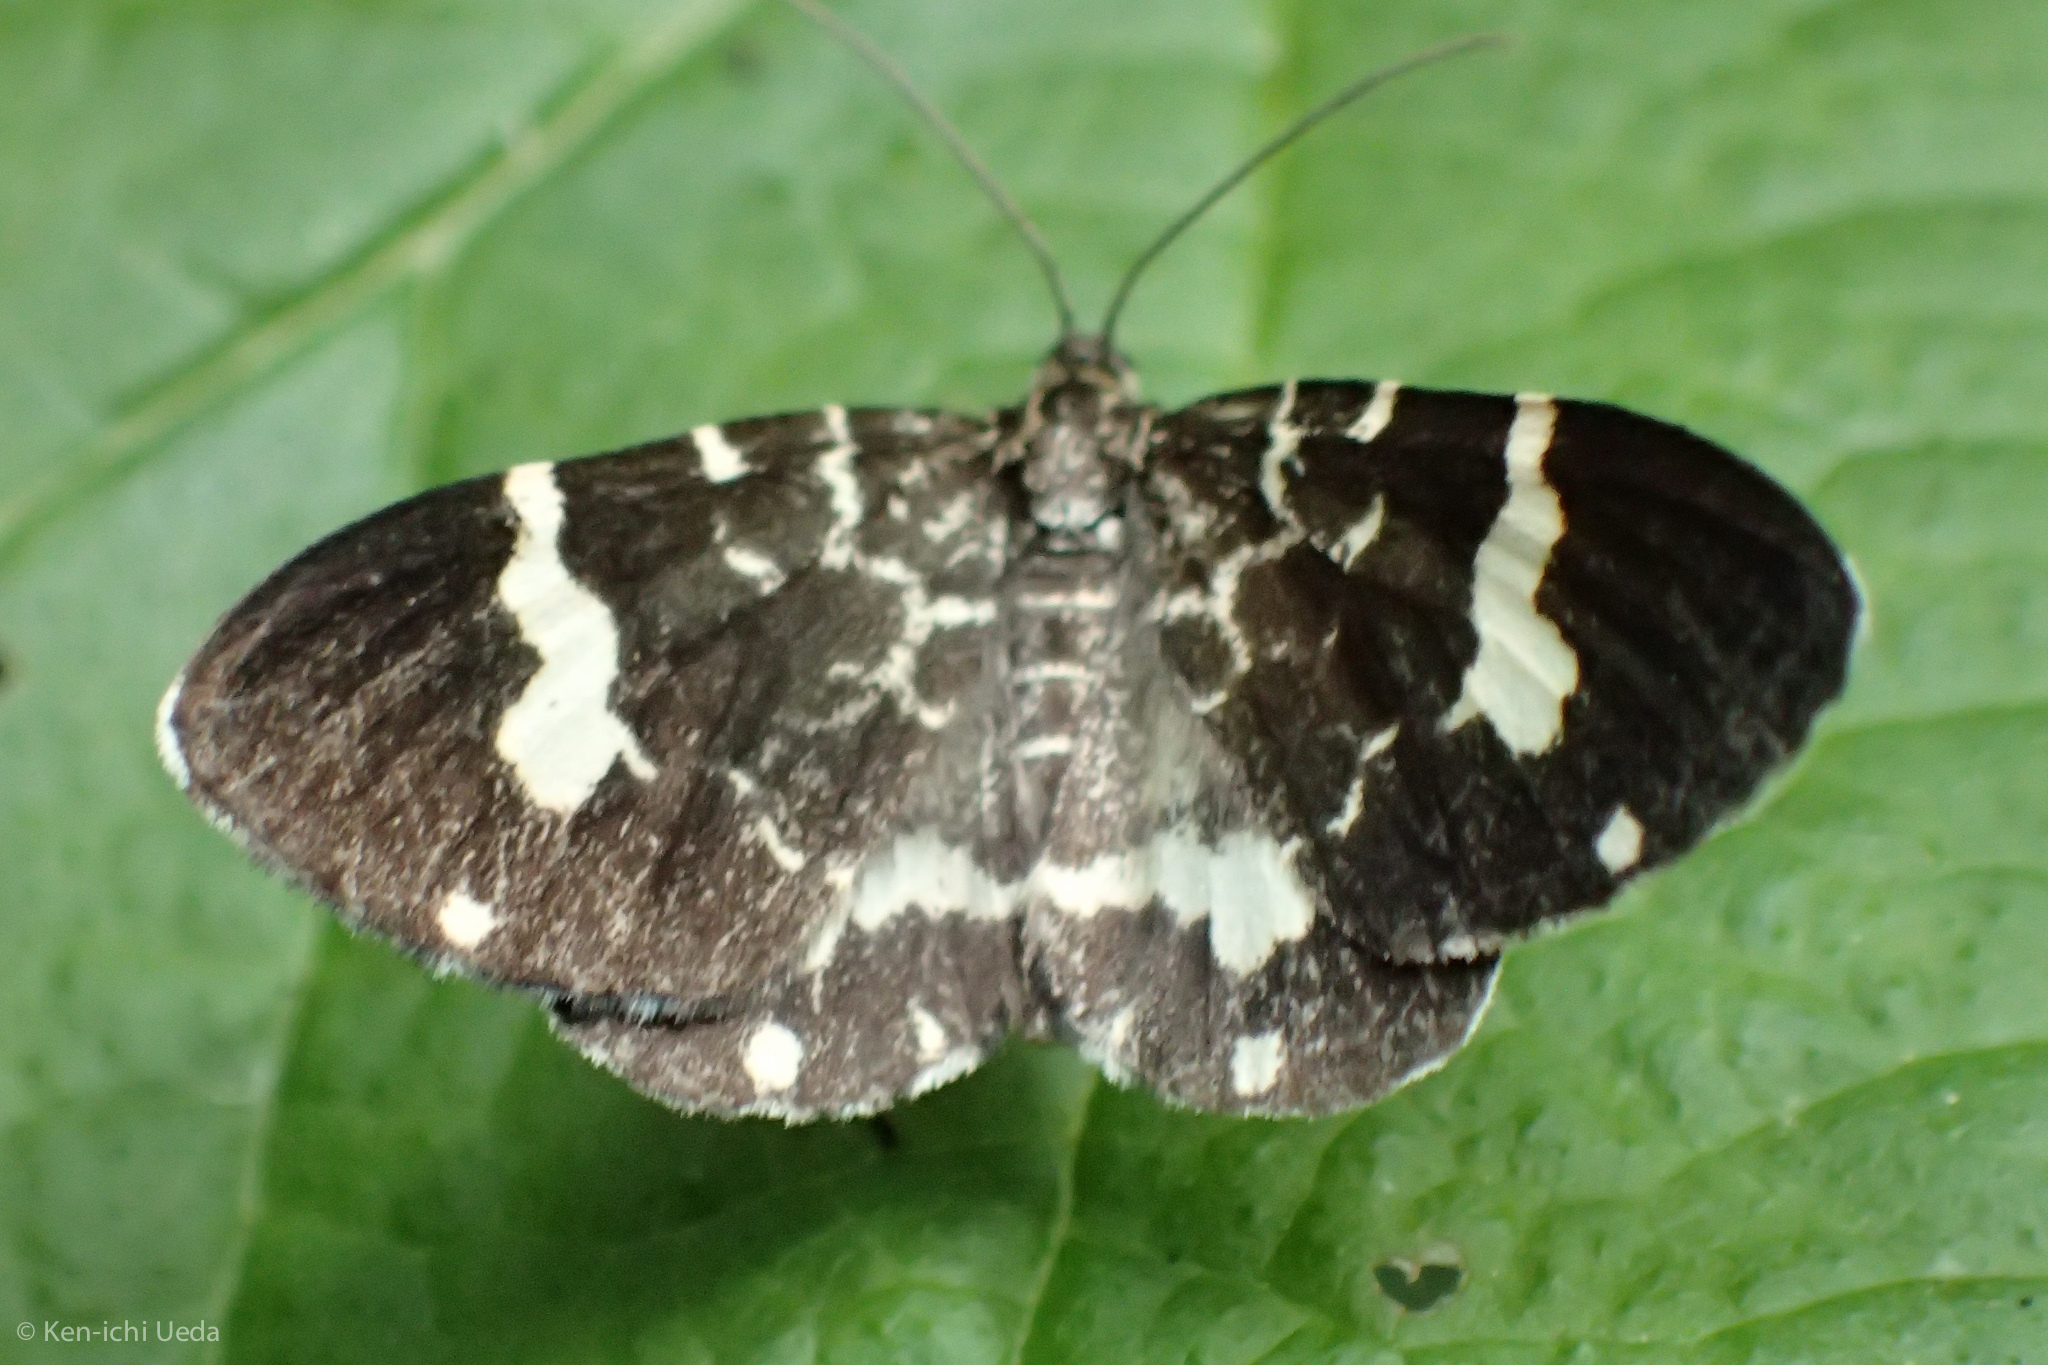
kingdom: Animalia
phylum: Arthropoda
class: Insecta
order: Lepidoptera
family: Geometridae
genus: Trichodezia
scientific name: Trichodezia californiata
